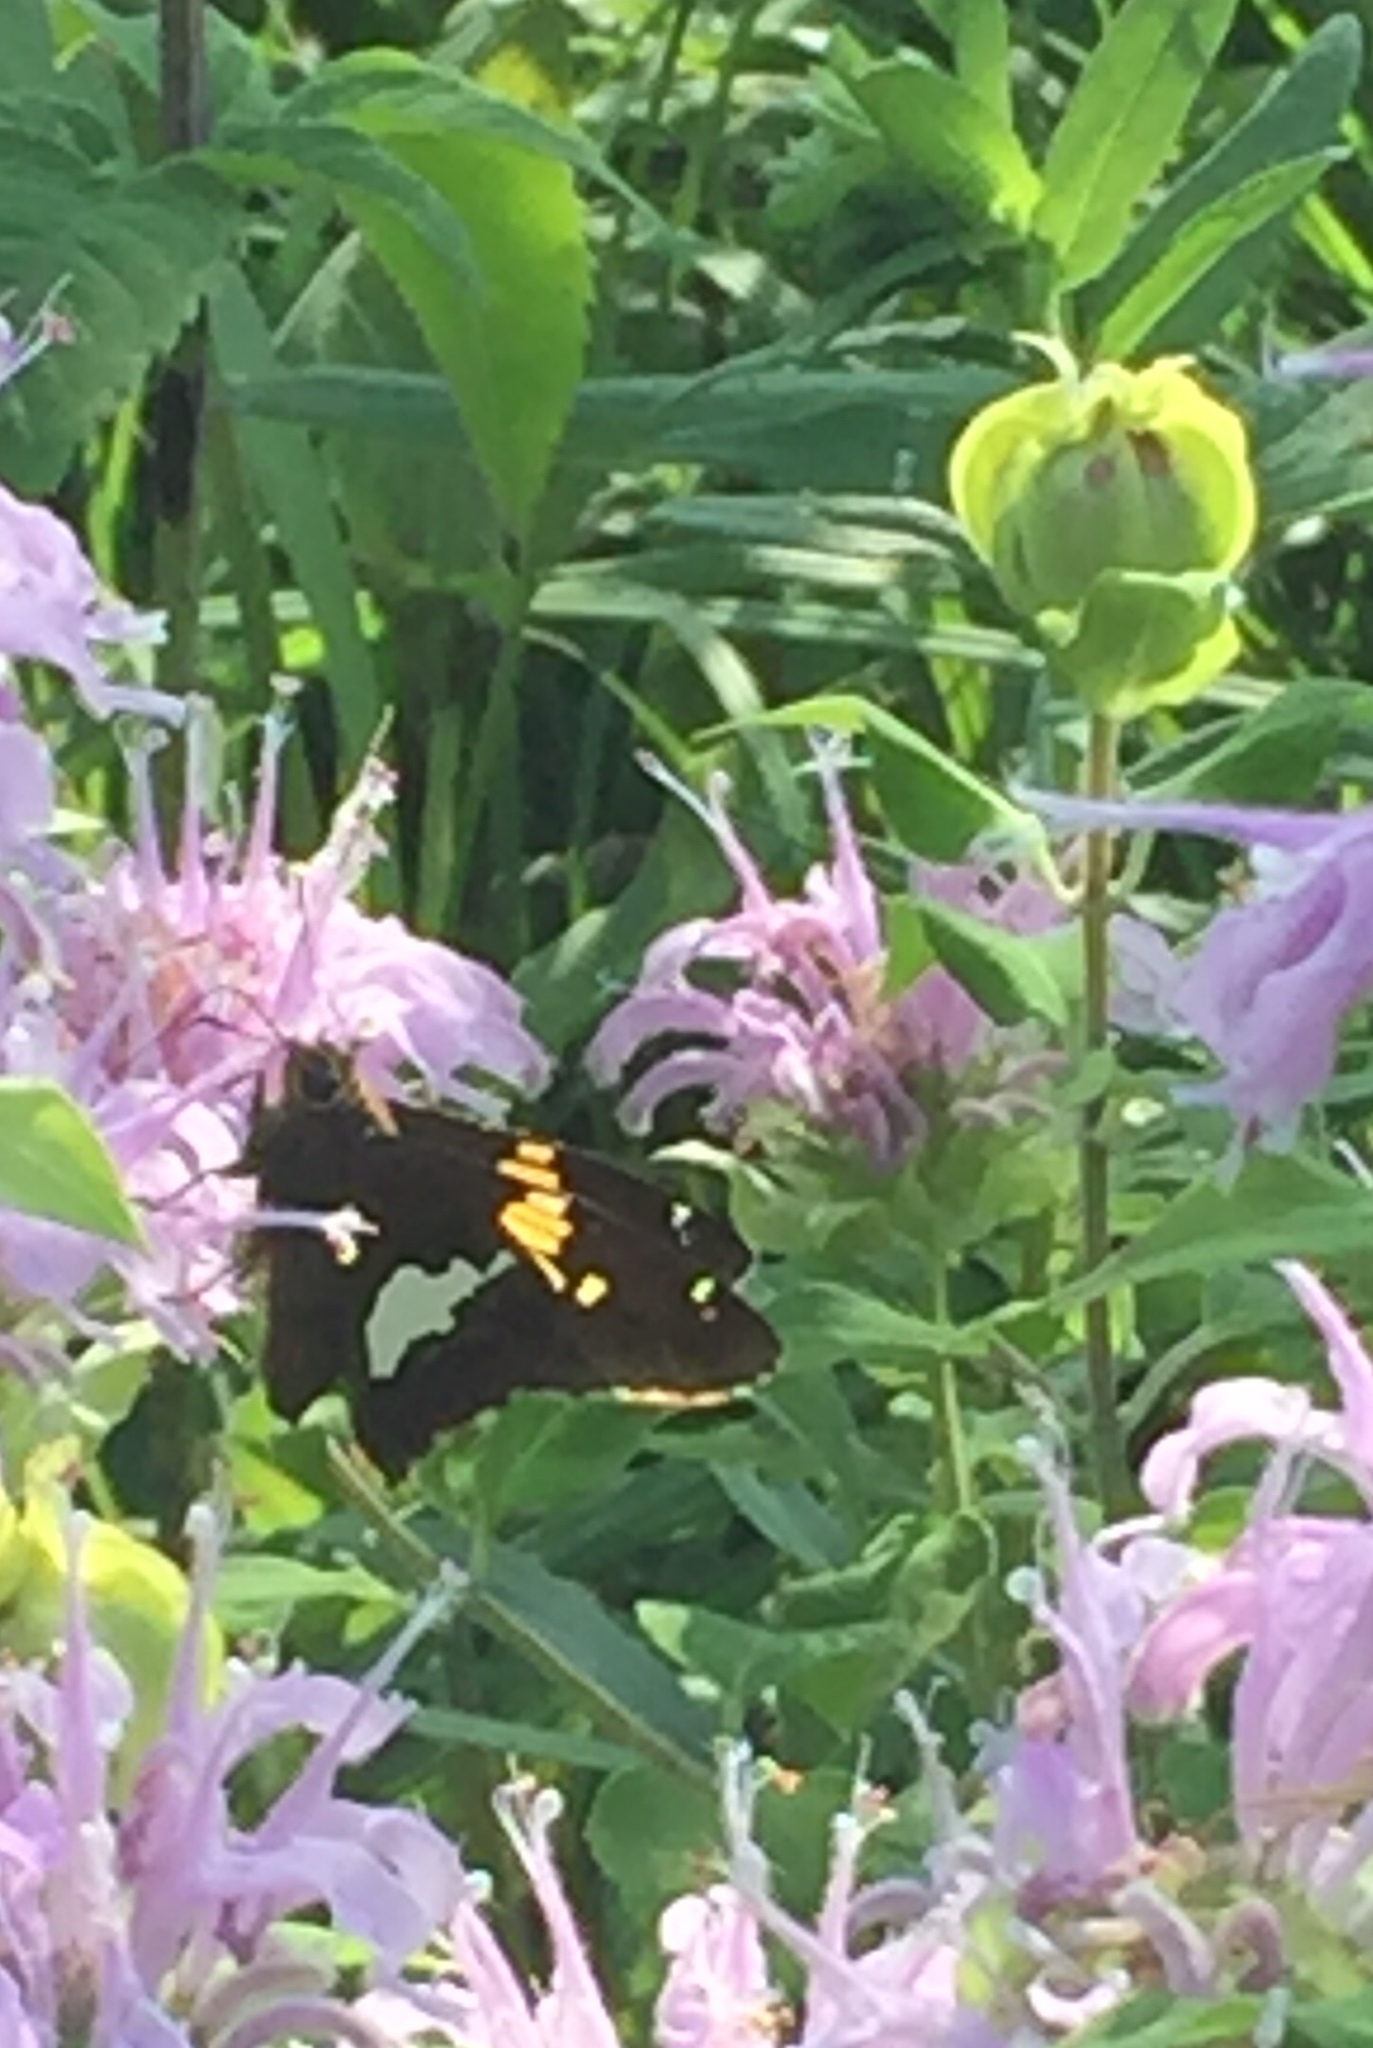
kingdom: Animalia
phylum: Arthropoda
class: Insecta
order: Lepidoptera
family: Hesperiidae
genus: Epargyreus
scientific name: Epargyreus clarus
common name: Silver-spotted skipper
